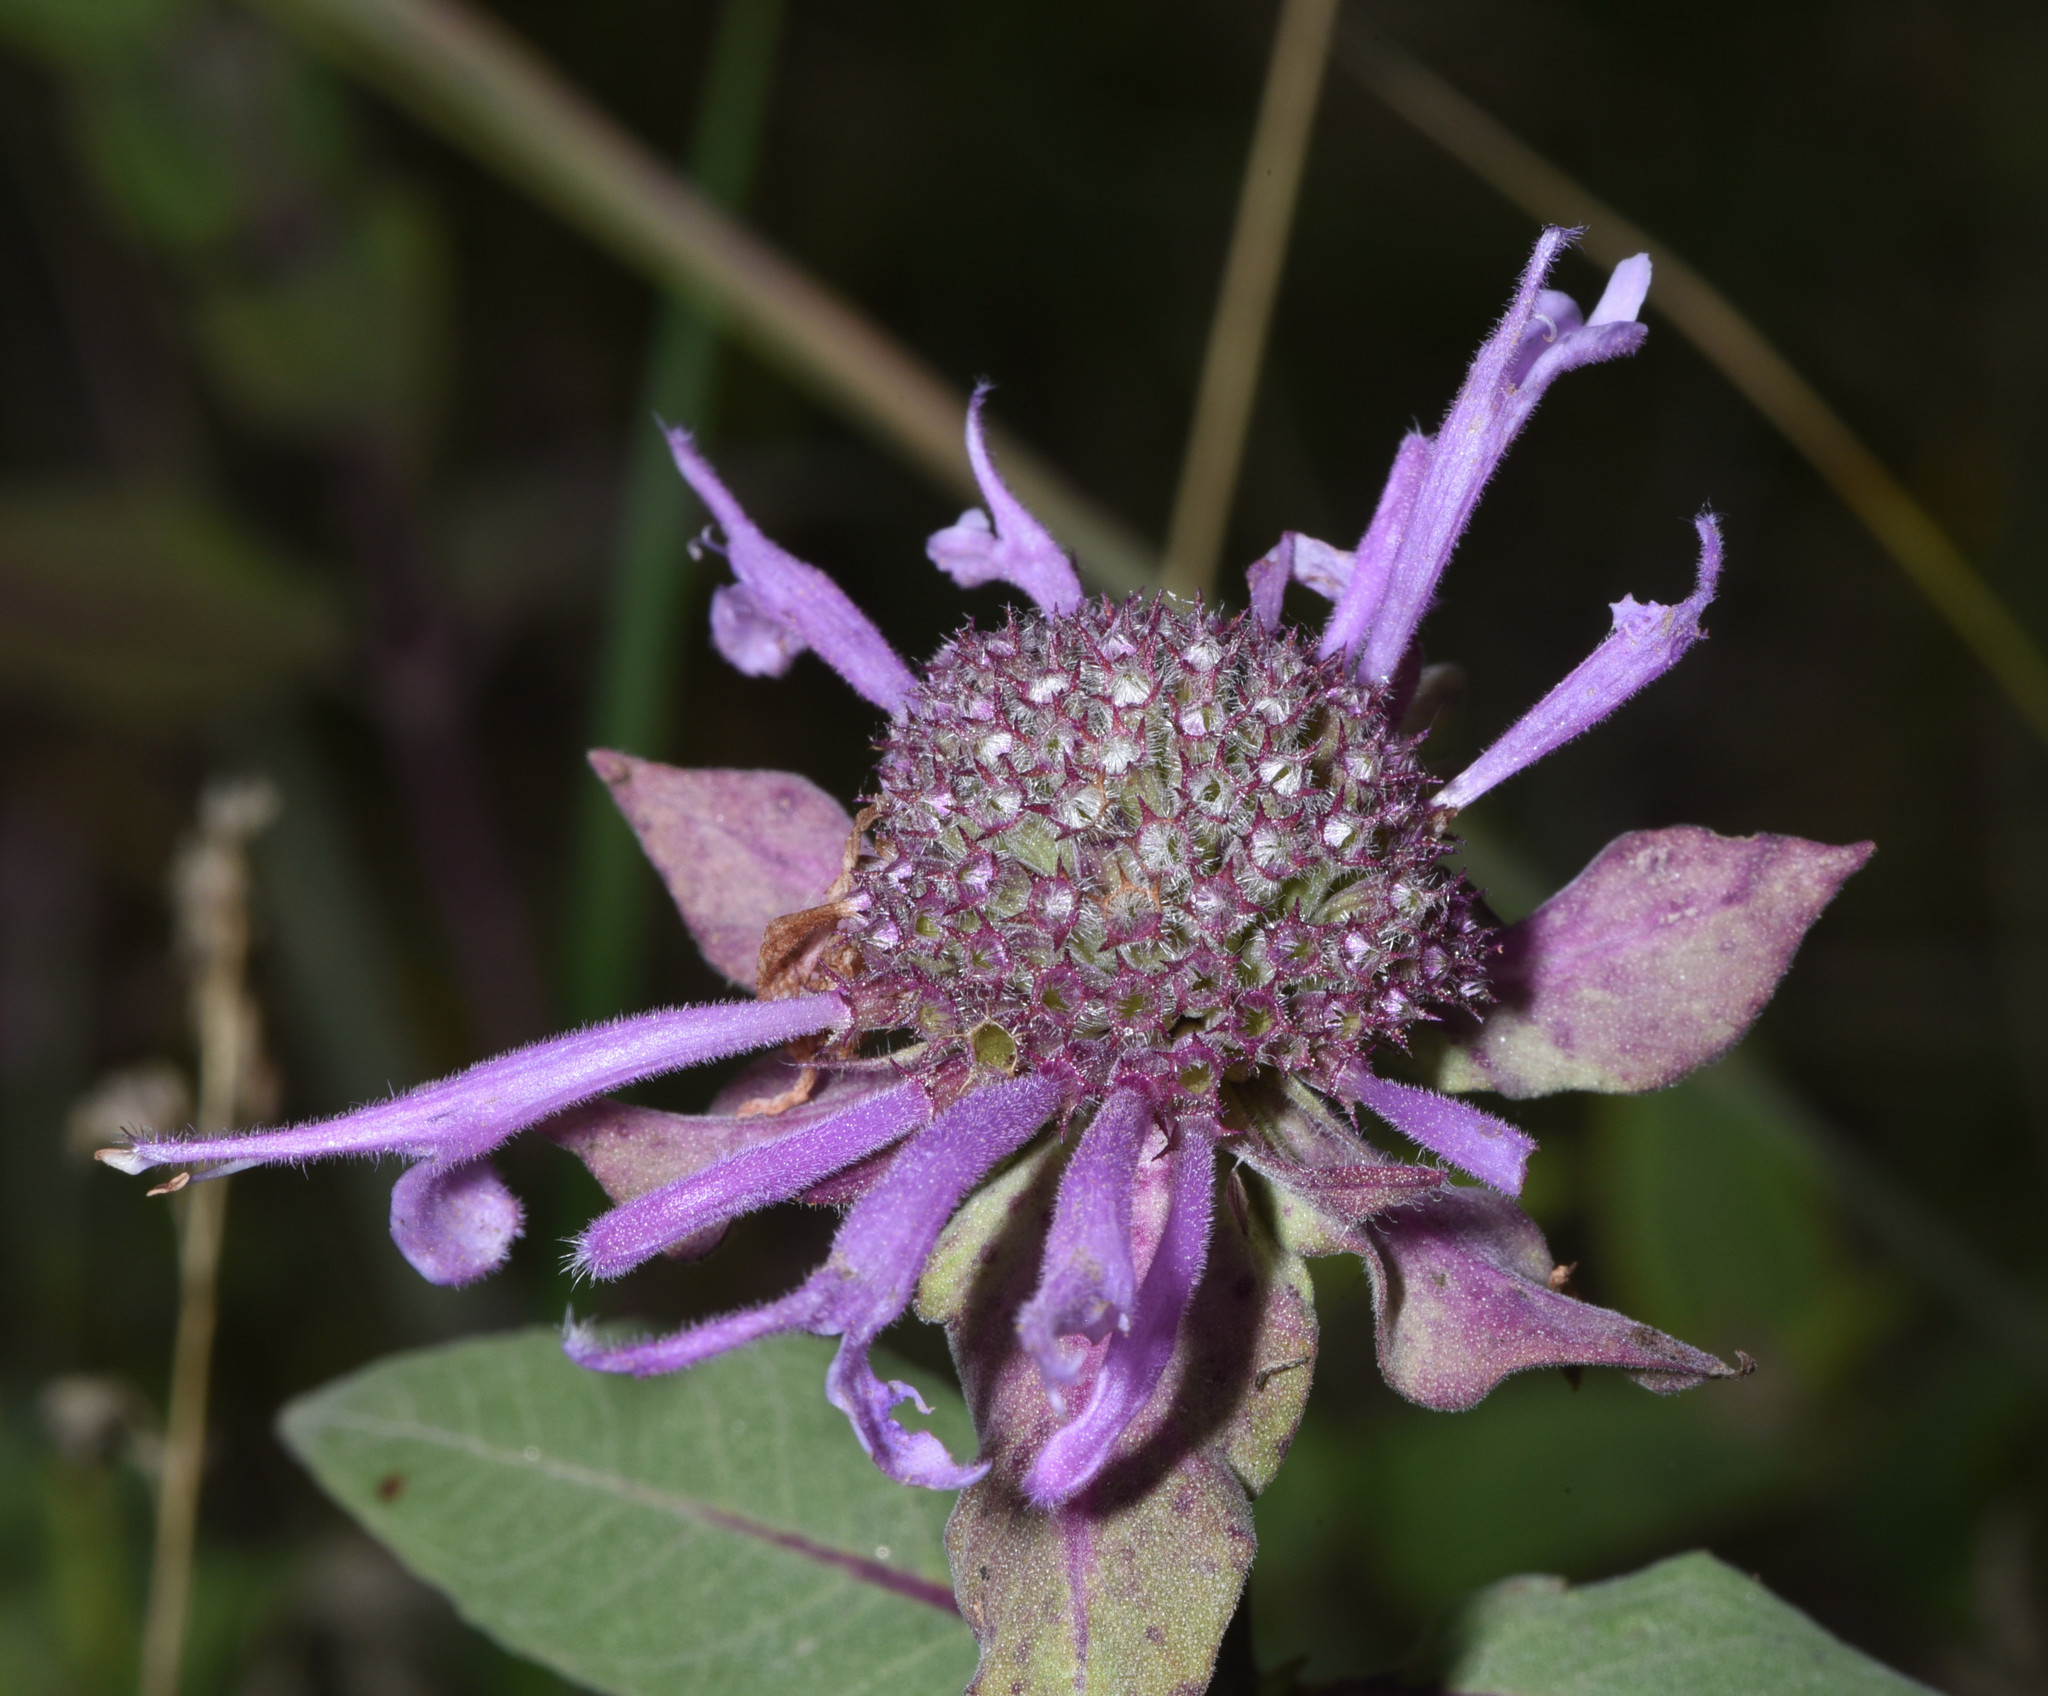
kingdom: Plantae
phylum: Tracheophyta
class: Magnoliopsida
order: Lamiales
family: Lamiaceae
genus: Monarda
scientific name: Monarda fistulosa
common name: Purple beebalm
